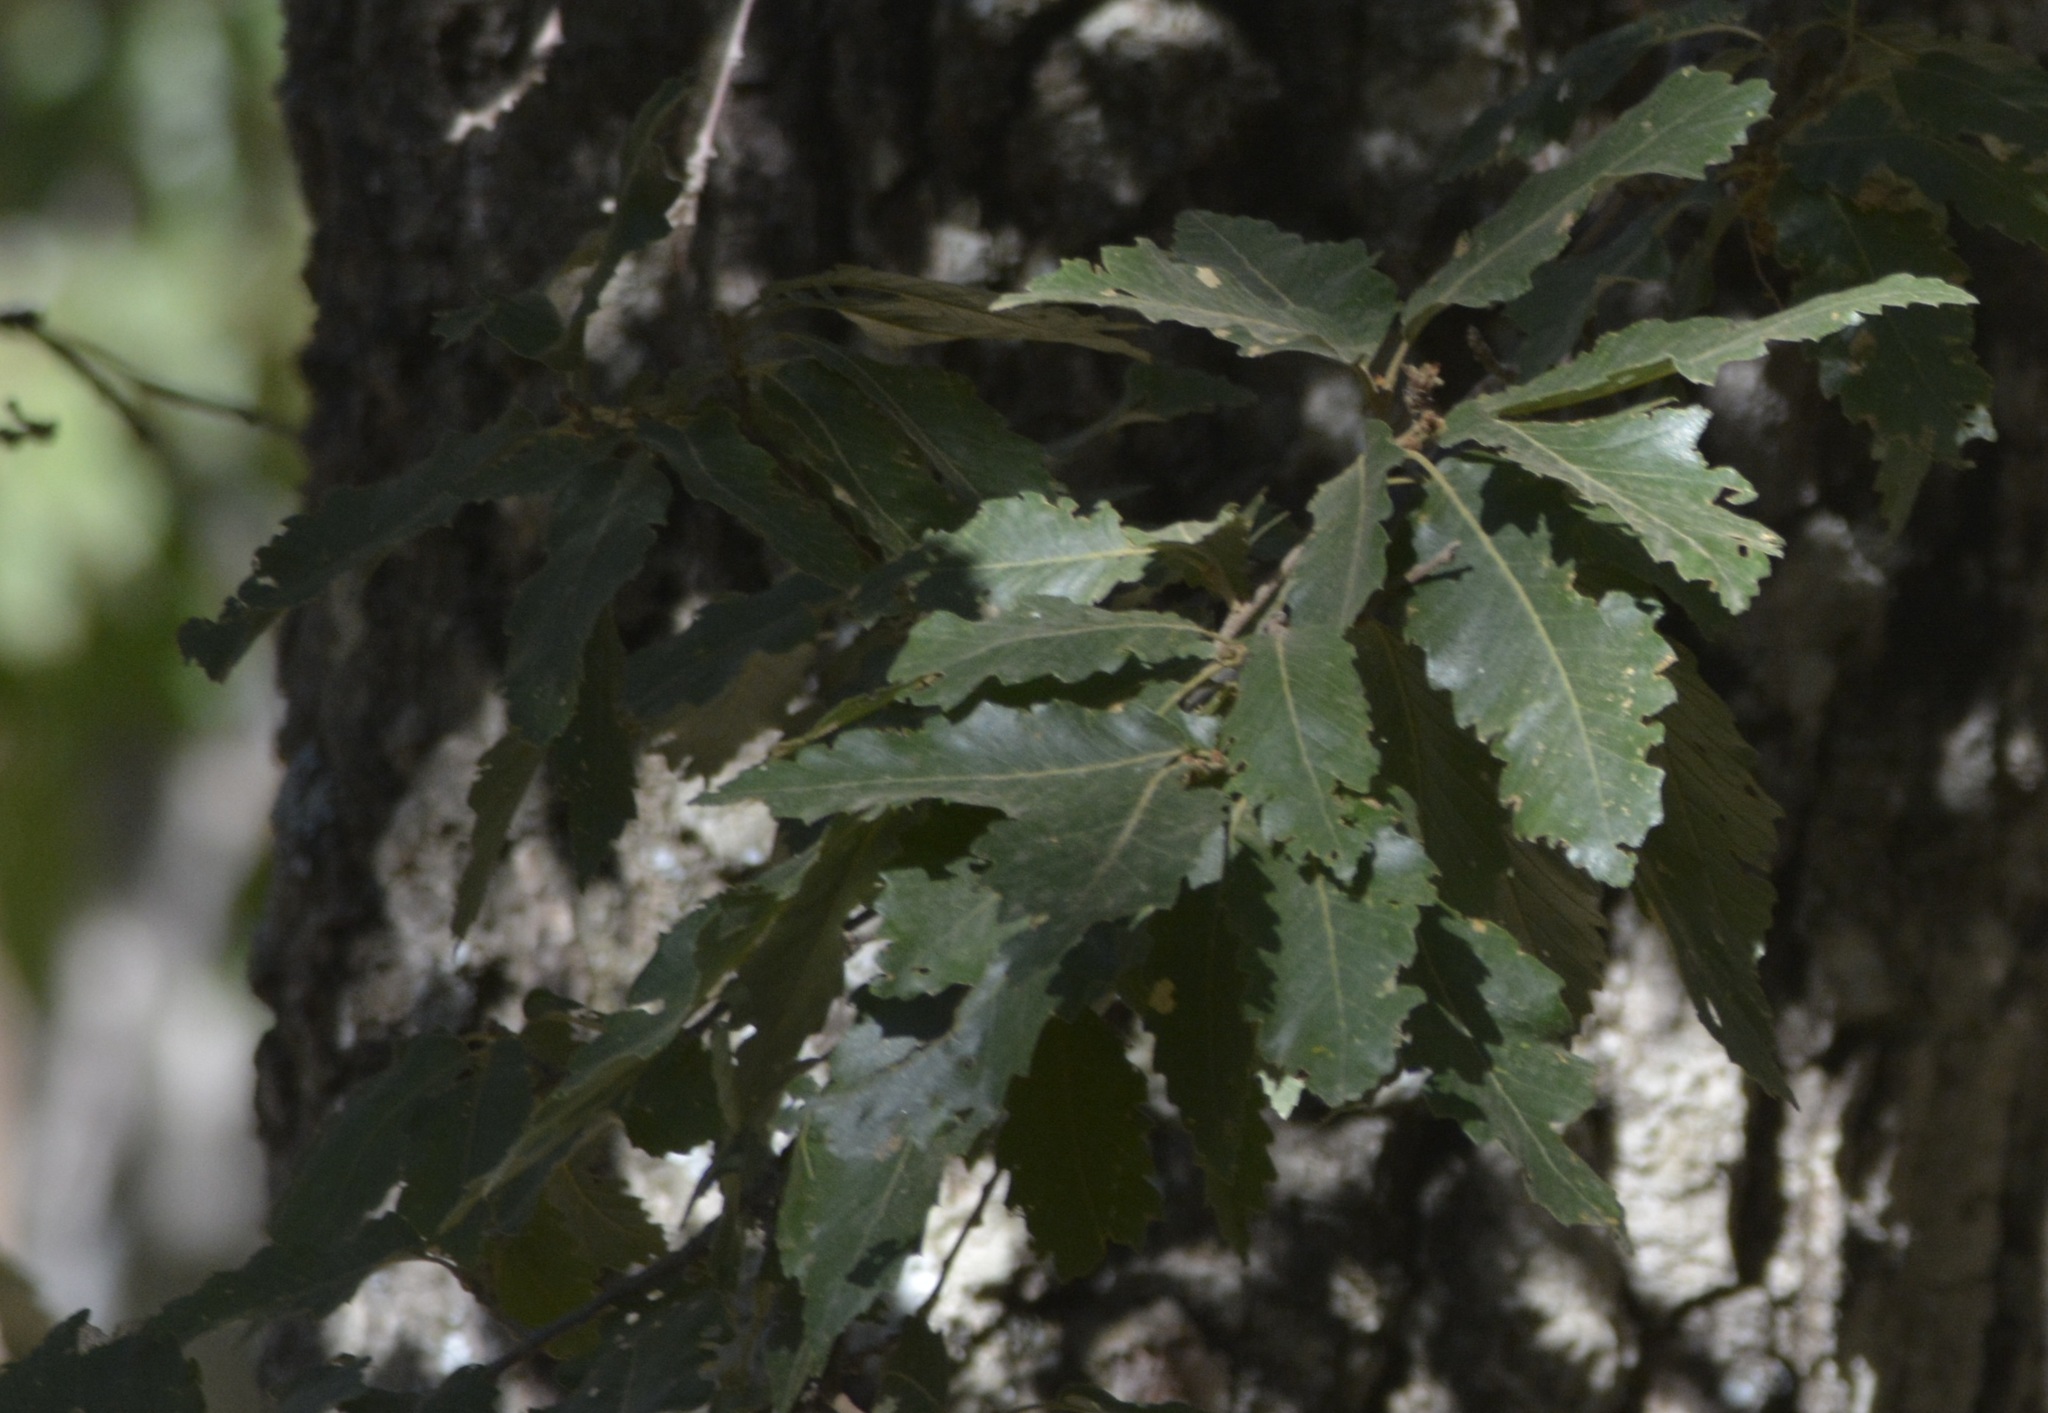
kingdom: Plantae
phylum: Tracheophyta
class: Magnoliopsida
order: Fagales
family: Fagaceae
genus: Quercus
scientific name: Quercus afares
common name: African oak
